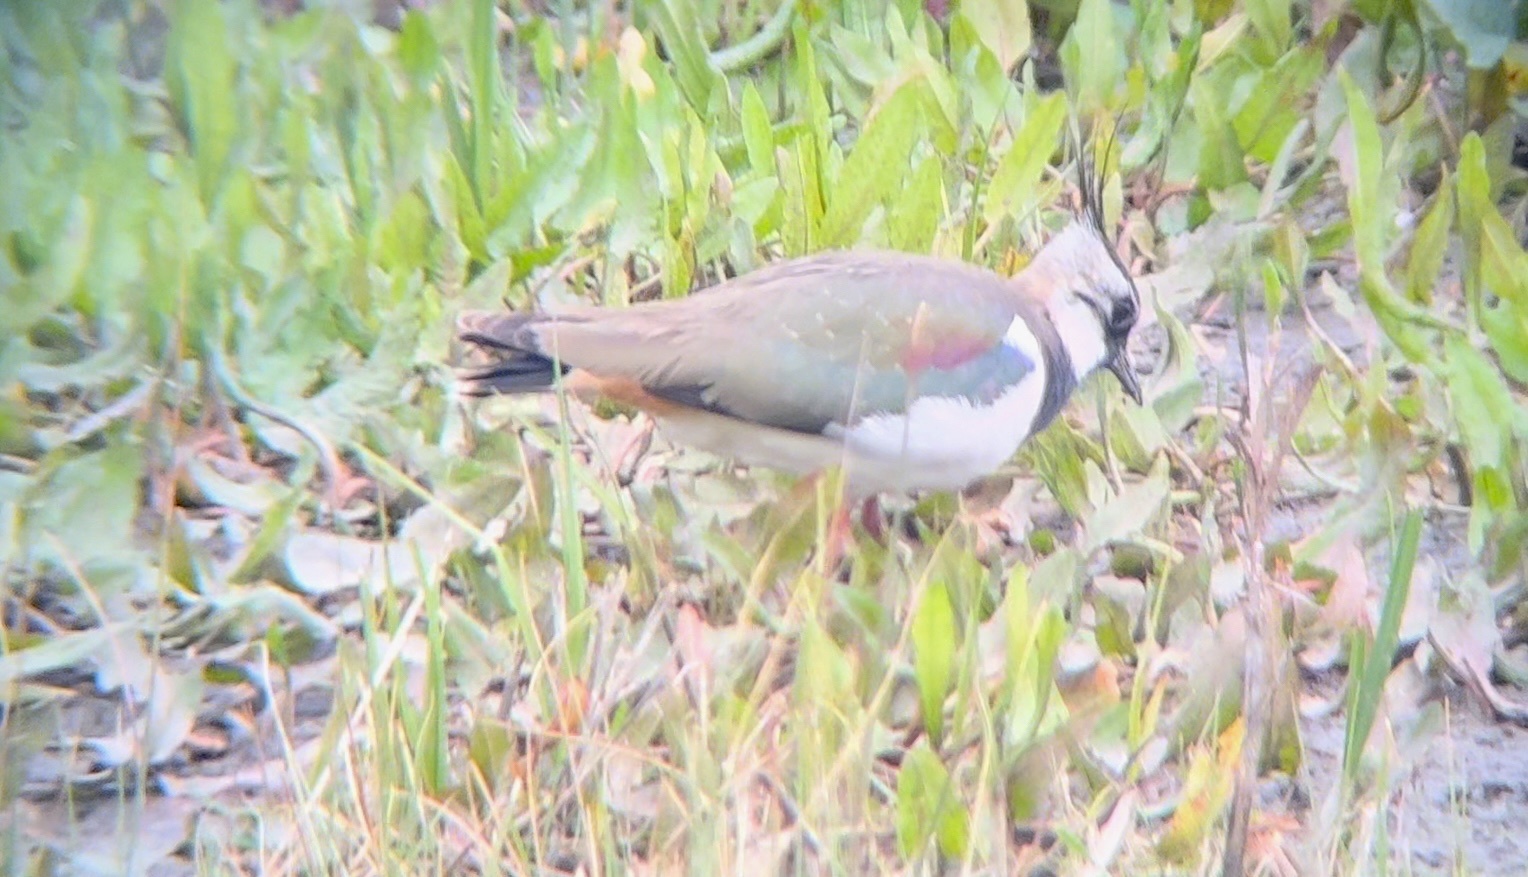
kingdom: Animalia
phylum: Chordata
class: Aves
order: Charadriiformes
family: Charadriidae
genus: Vanellus
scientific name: Vanellus vanellus
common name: Northern lapwing
